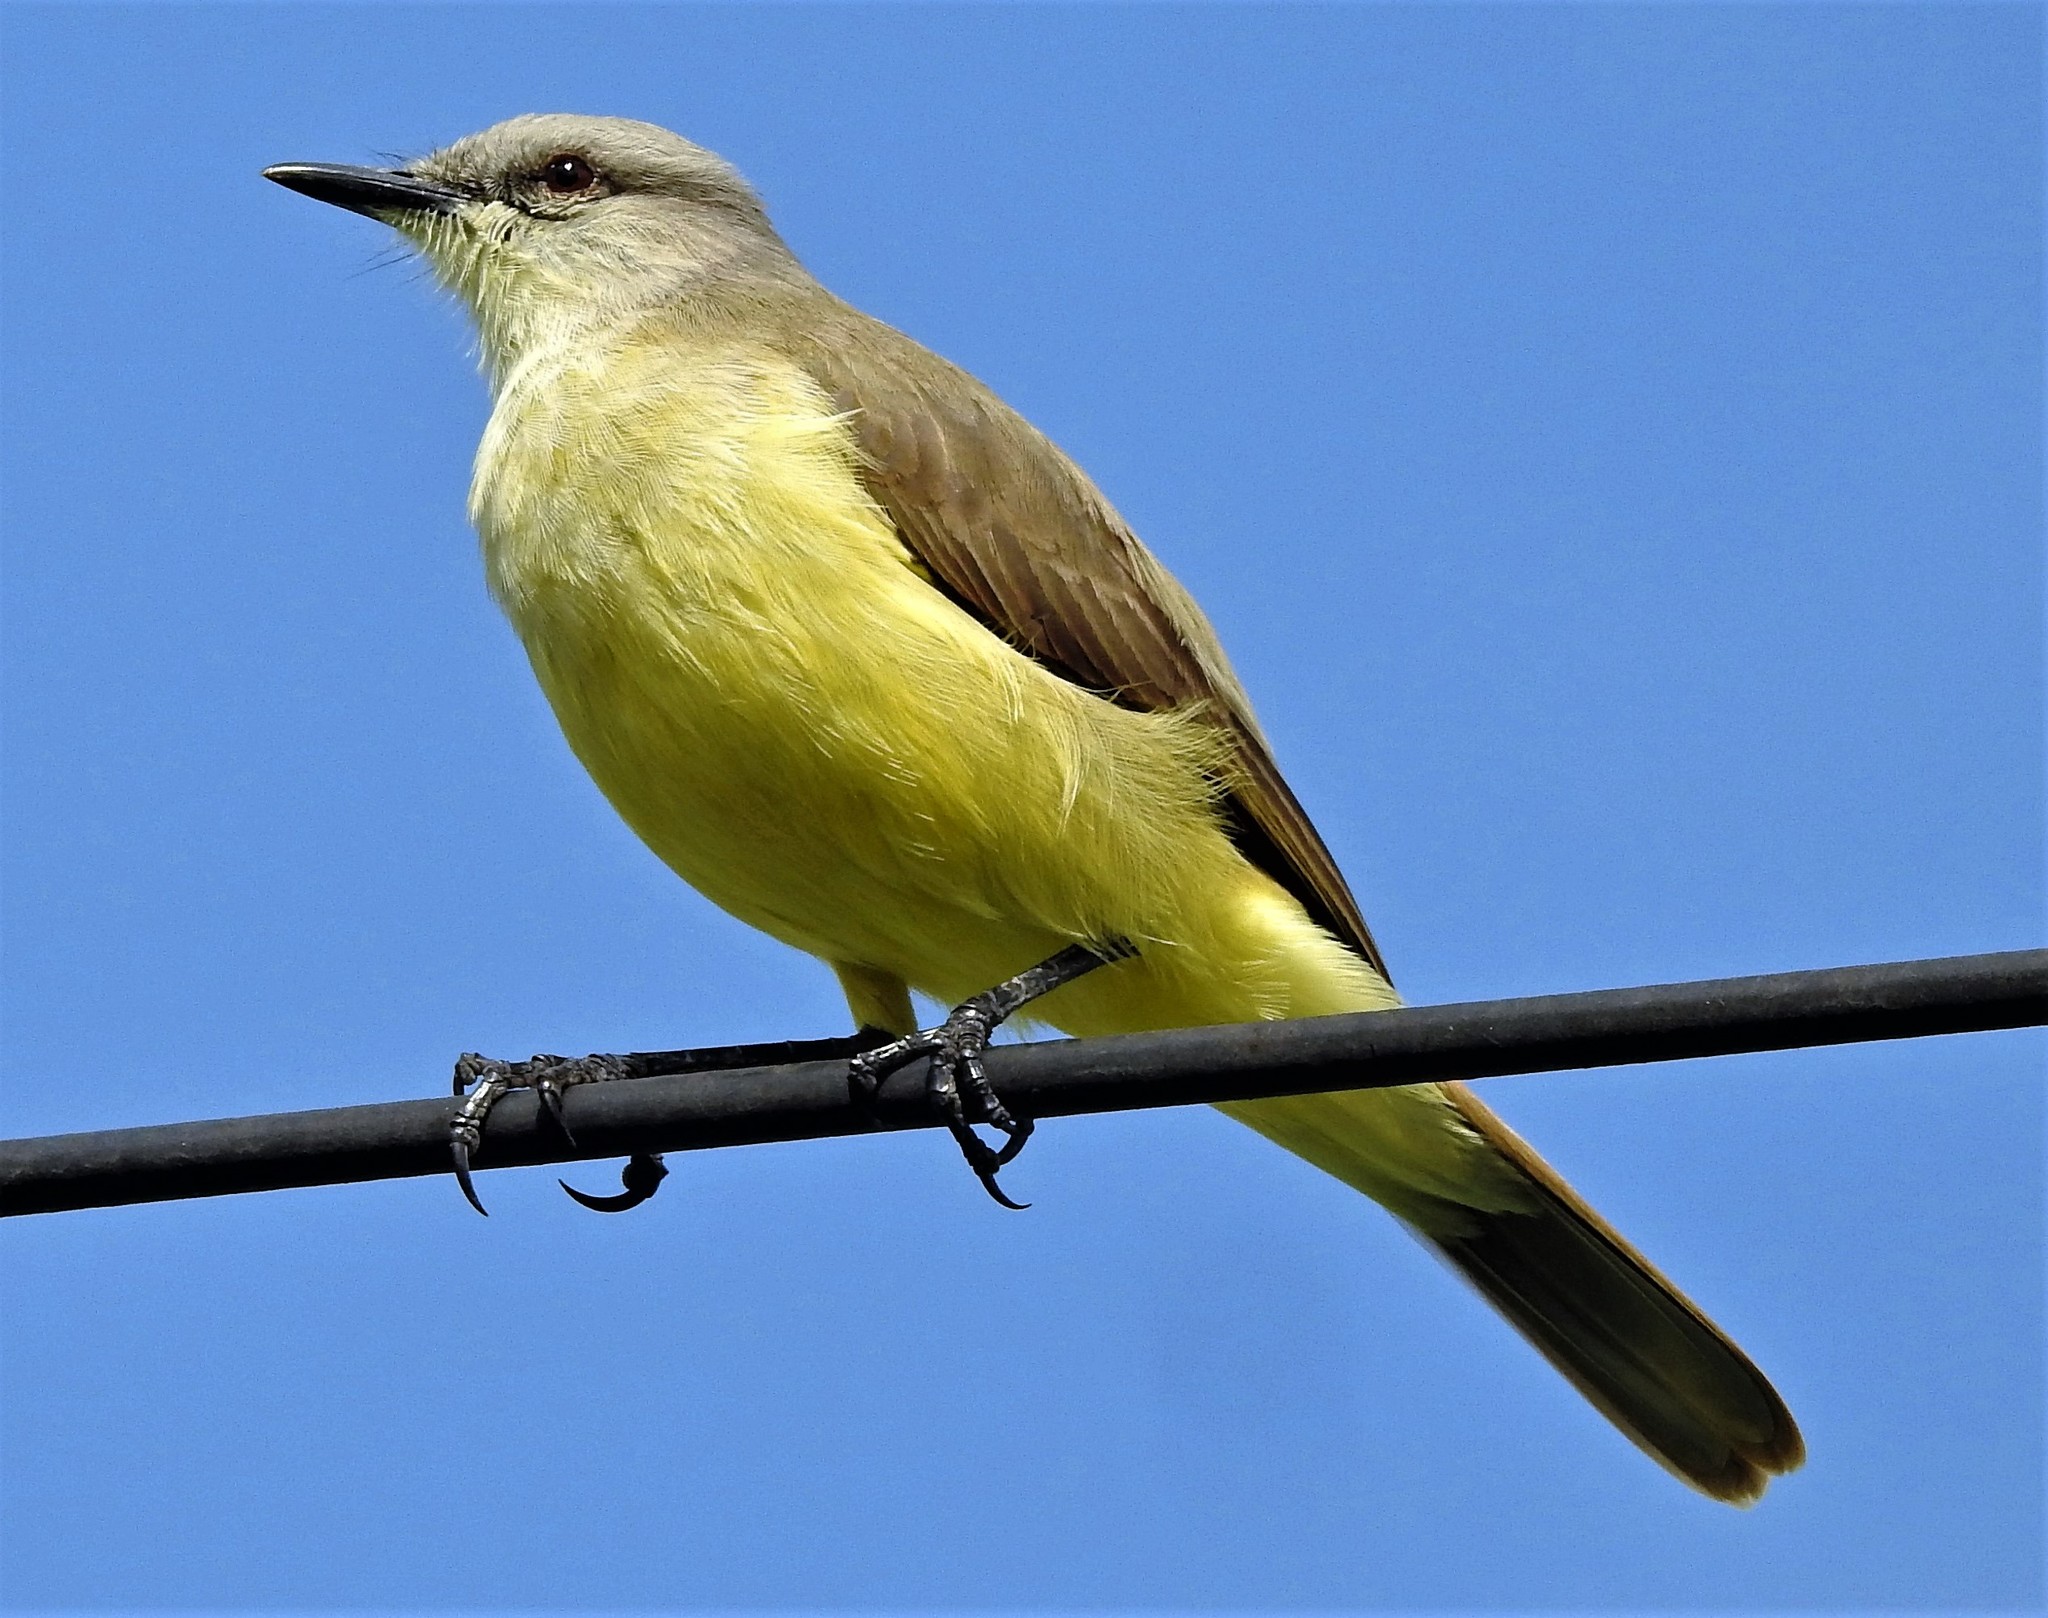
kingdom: Animalia
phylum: Chordata
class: Aves
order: Passeriformes
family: Tyrannidae
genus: Machetornis
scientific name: Machetornis rixosa
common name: Cattle tyrant
